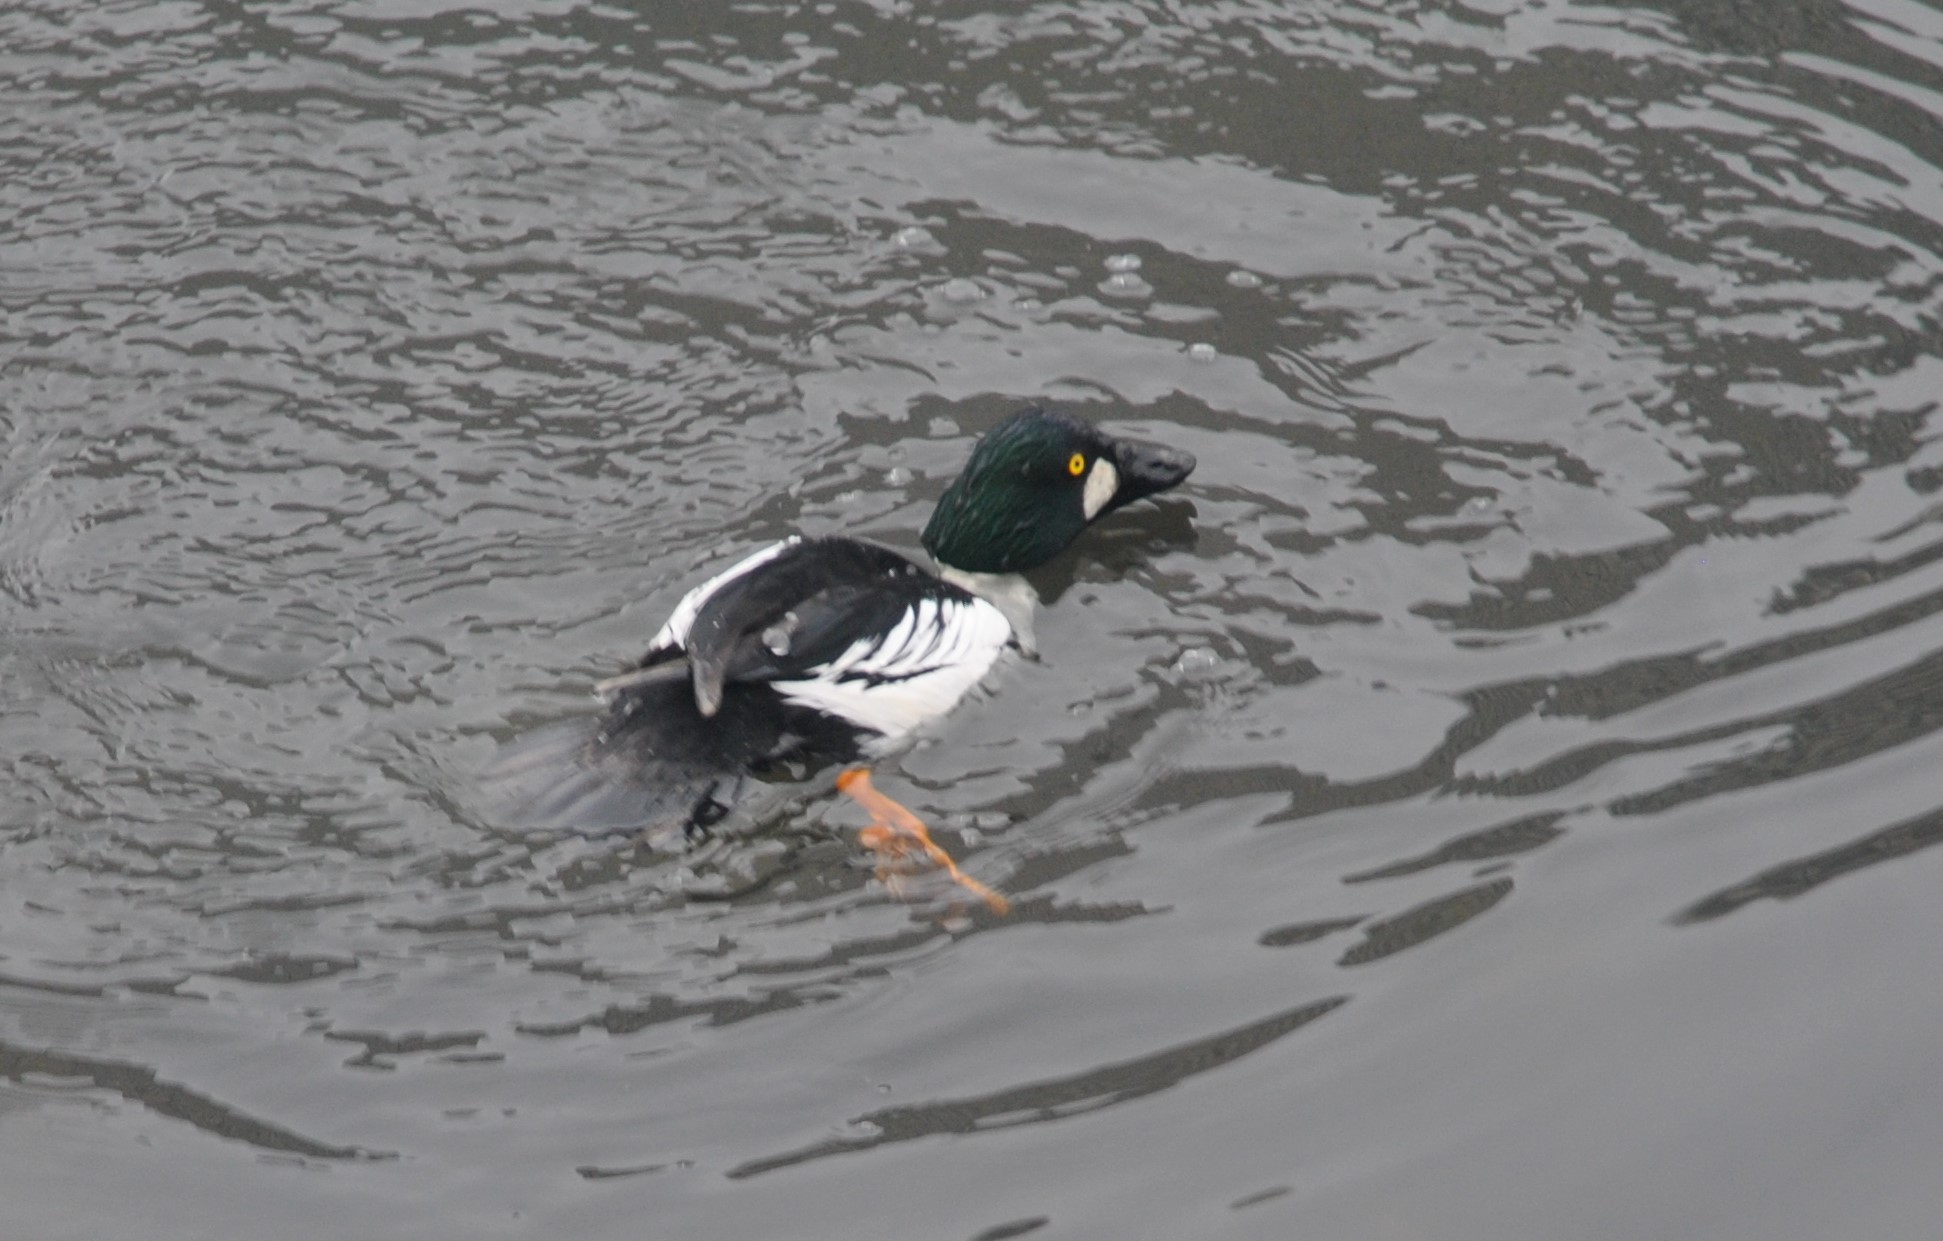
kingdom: Animalia
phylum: Chordata
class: Aves
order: Anseriformes
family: Anatidae
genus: Bucephala
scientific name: Bucephala clangula
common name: Common goldeneye
